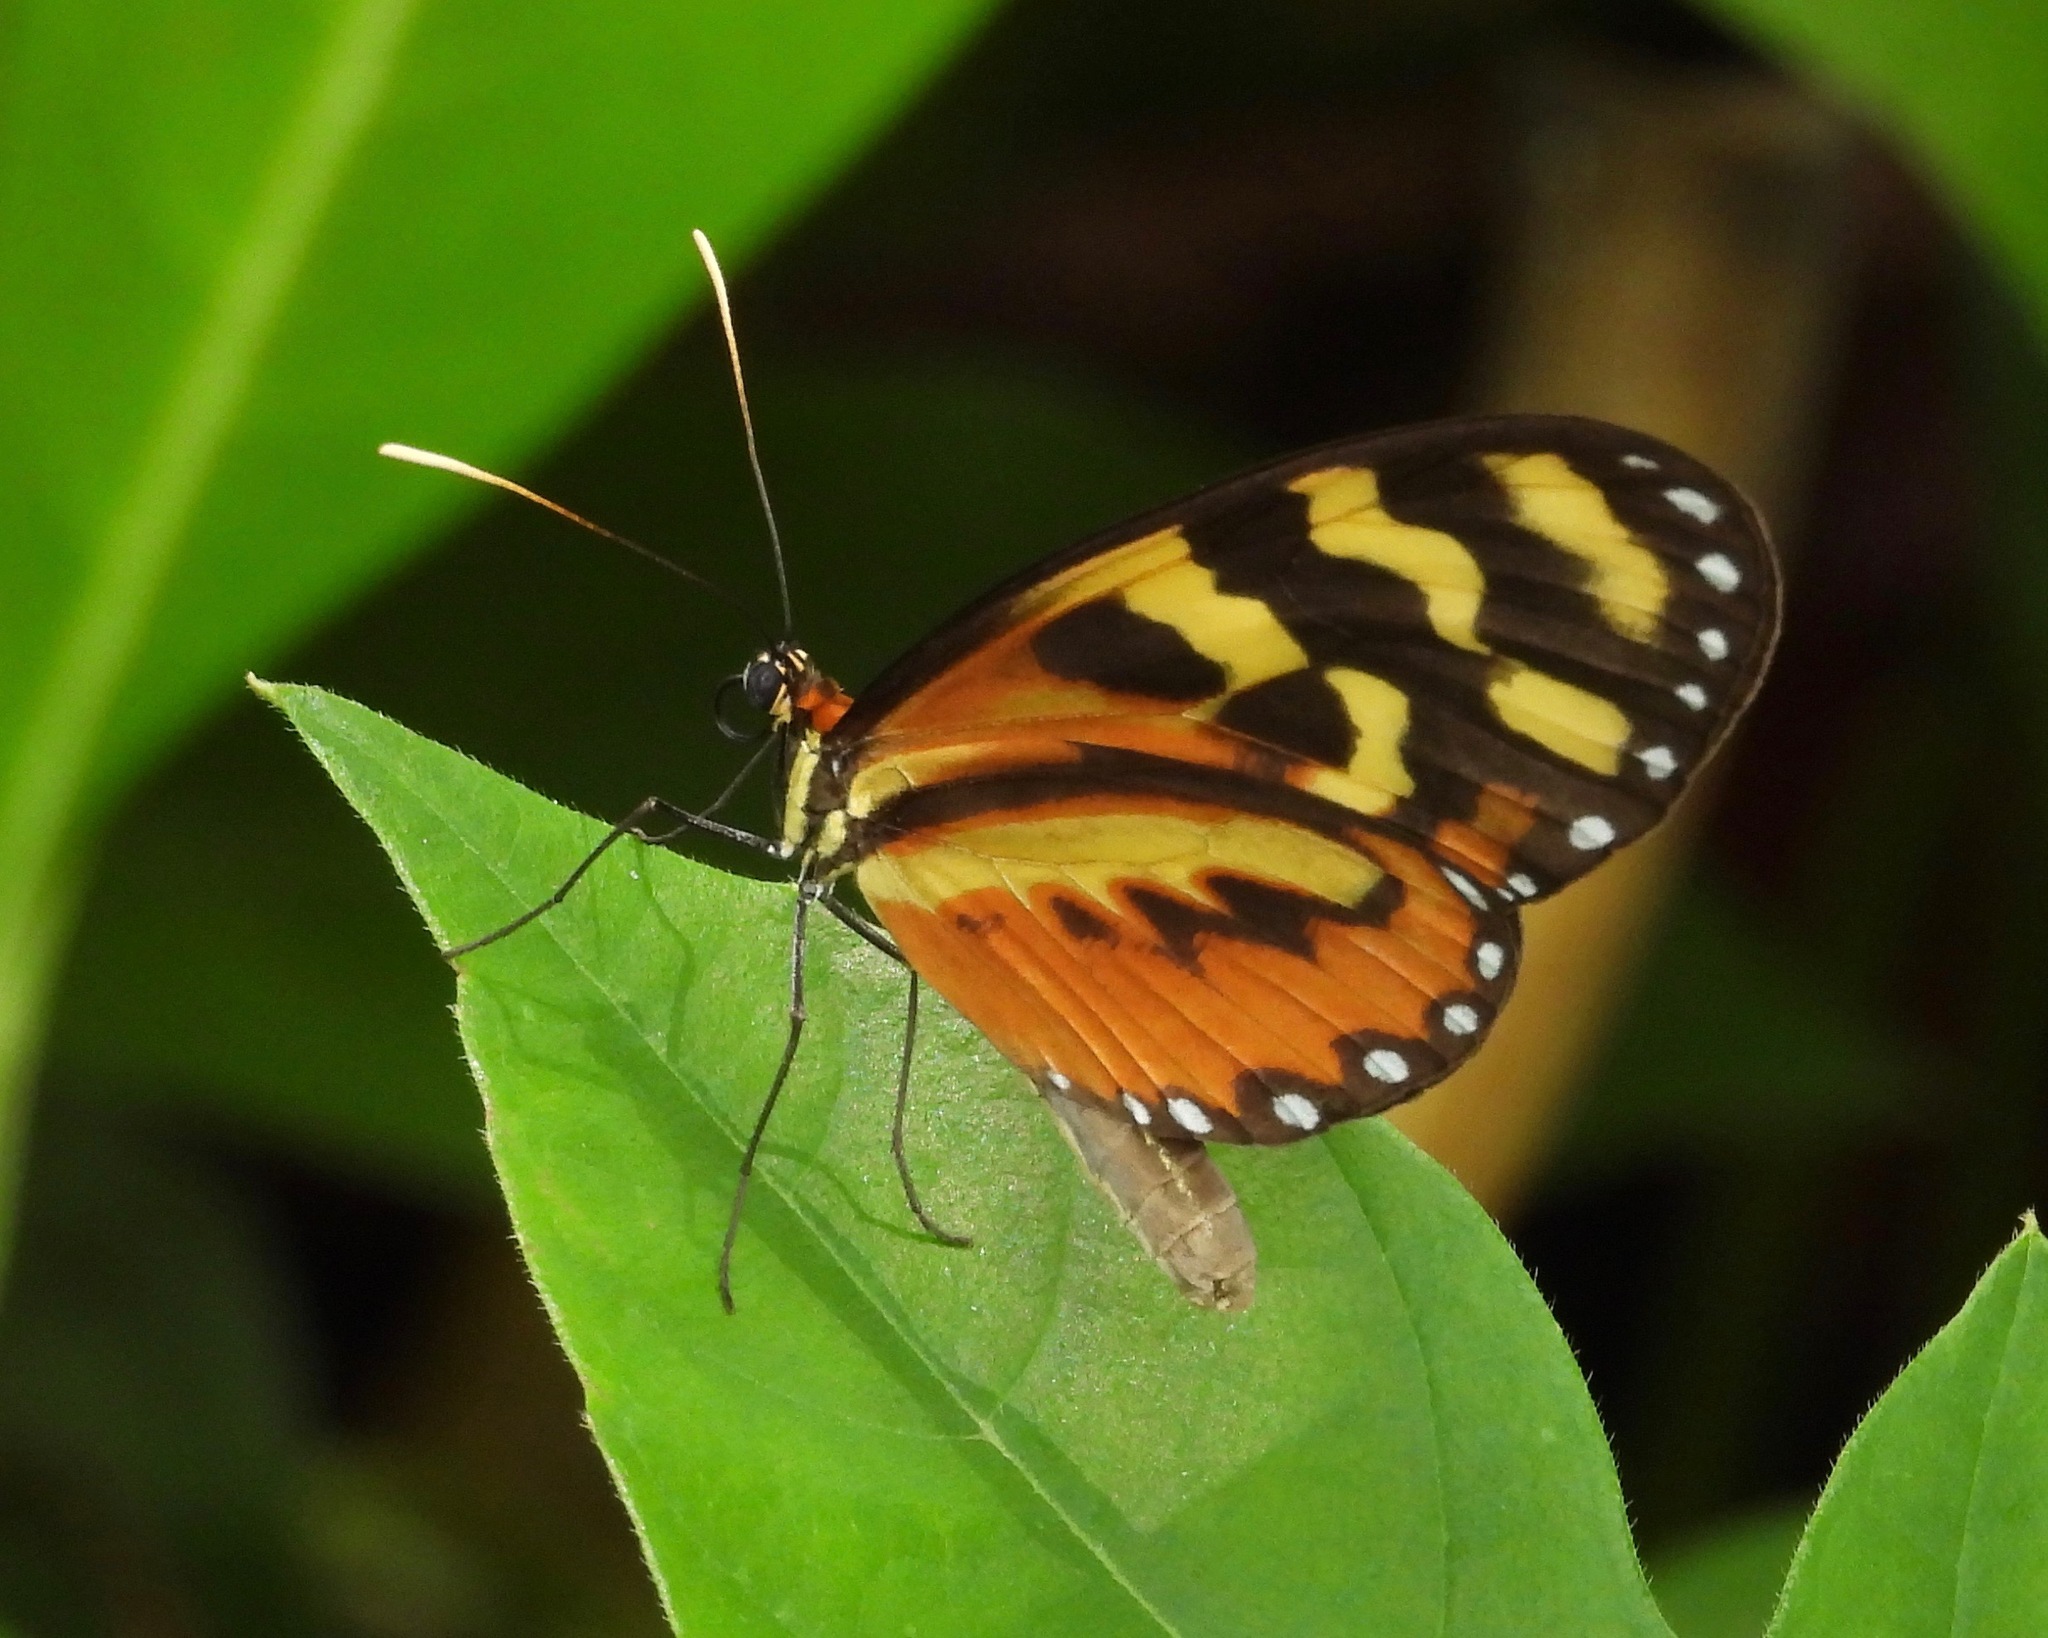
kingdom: Animalia
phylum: Arthropoda
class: Insecta
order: Lepidoptera
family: Nymphalidae
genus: Mechanitis
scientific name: Mechanitis polymnia
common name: Disturbed tigerwing
